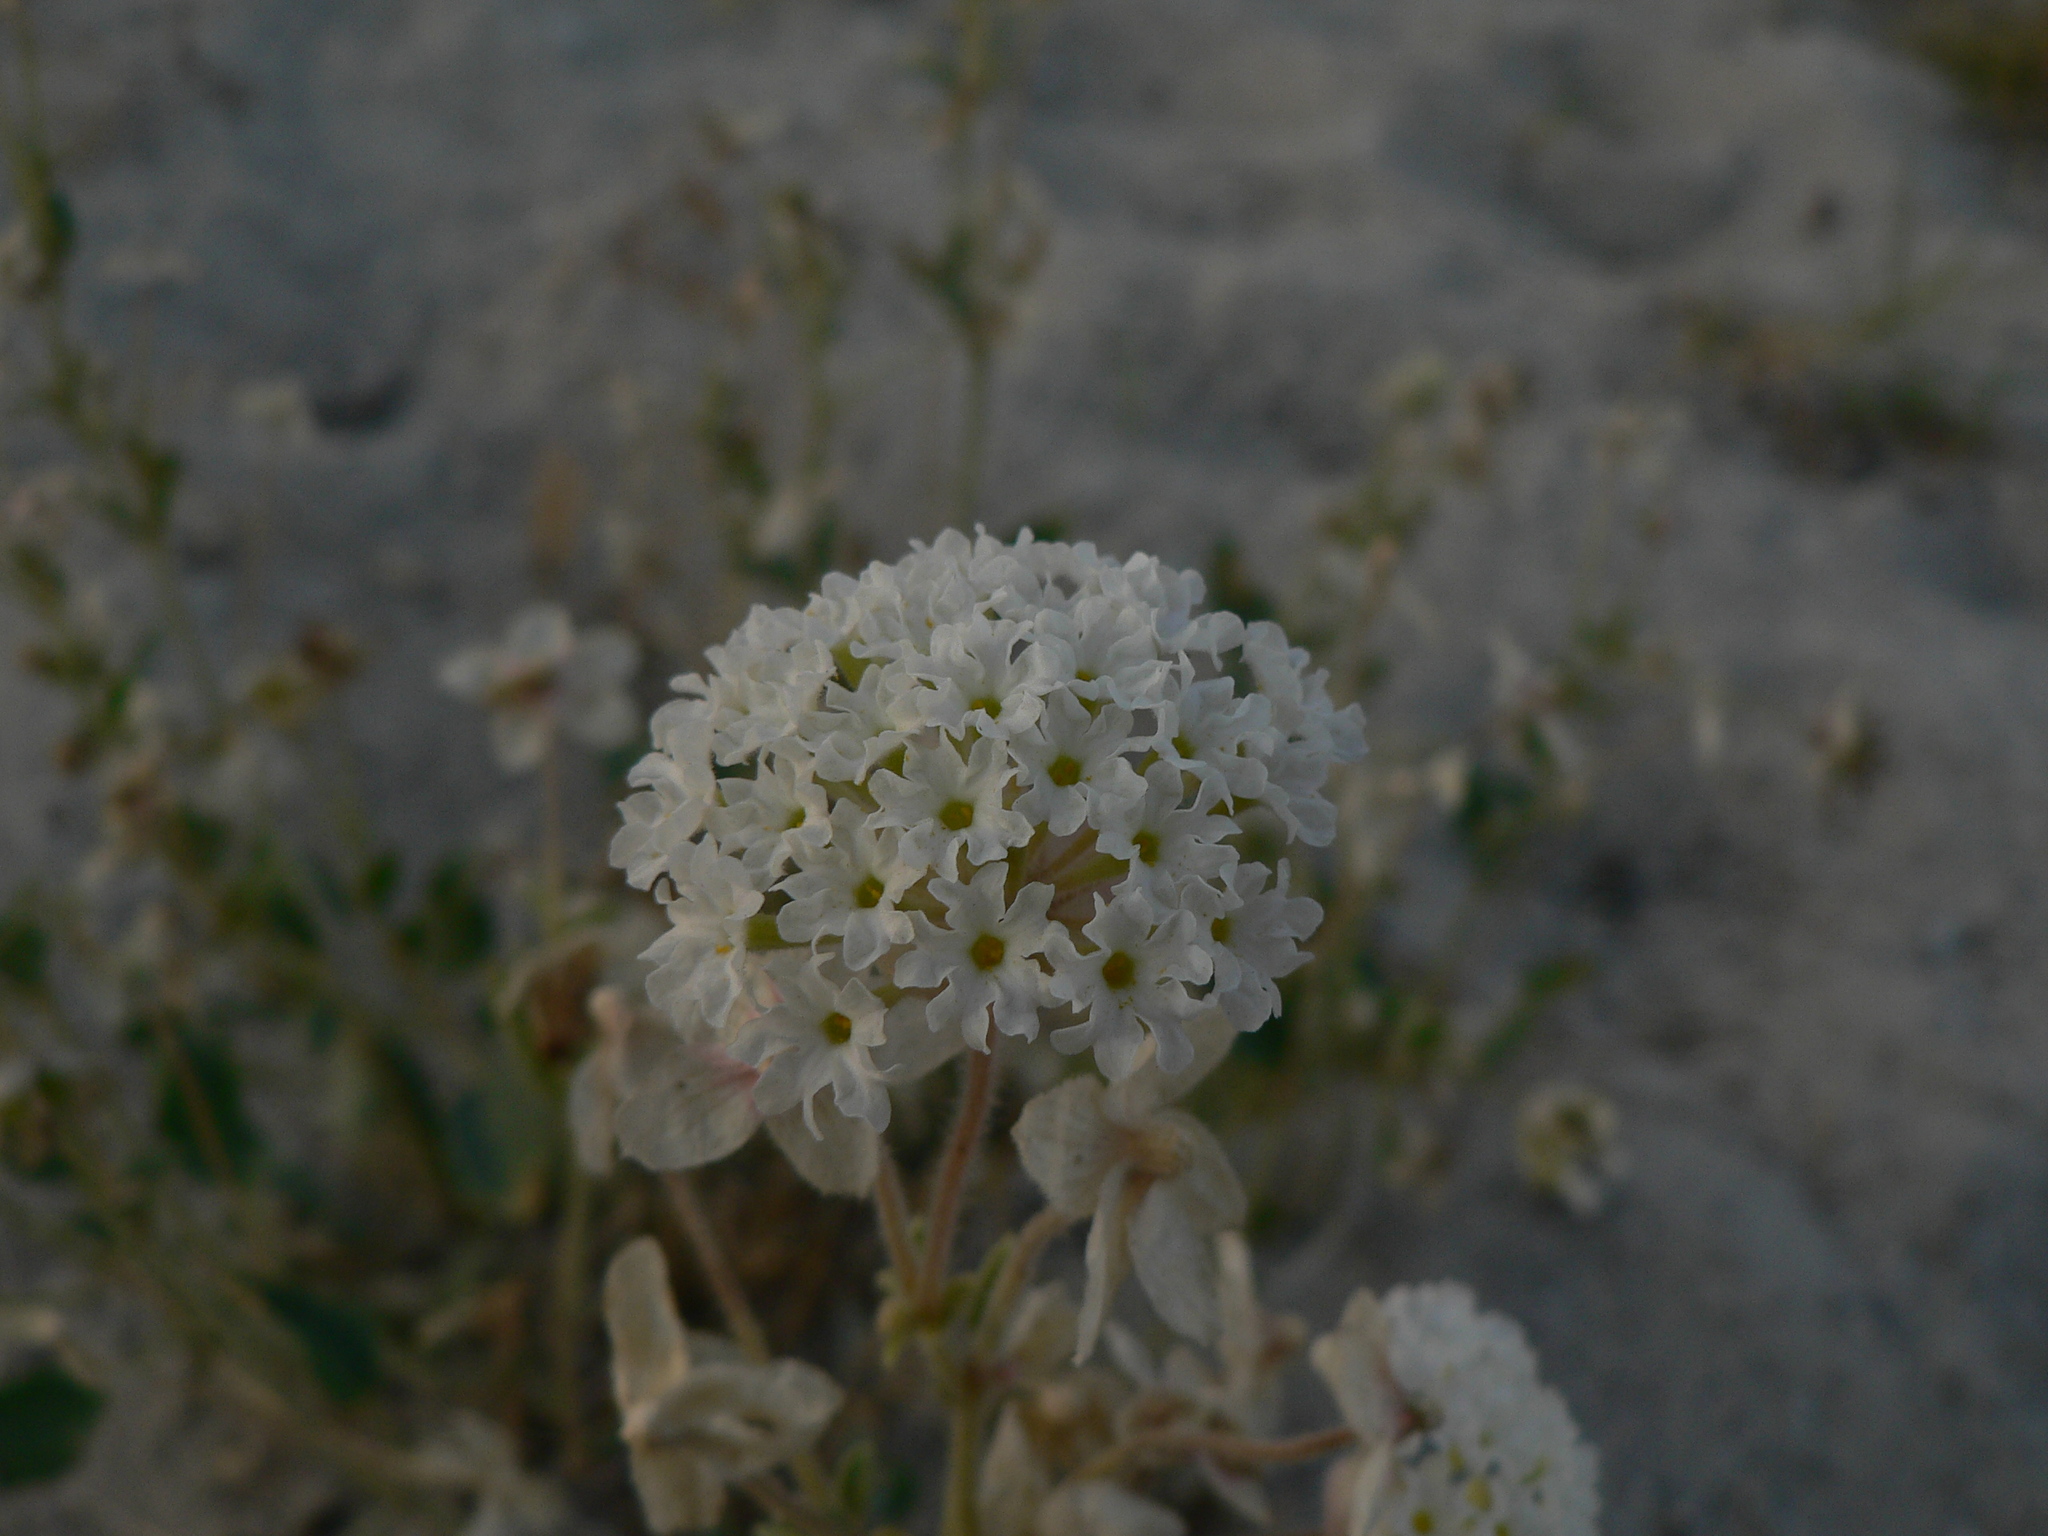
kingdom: Plantae
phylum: Tracheophyta
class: Magnoliopsida
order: Caryophyllales
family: Nyctaginaceae
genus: Abronia
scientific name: Abronia elliptica
